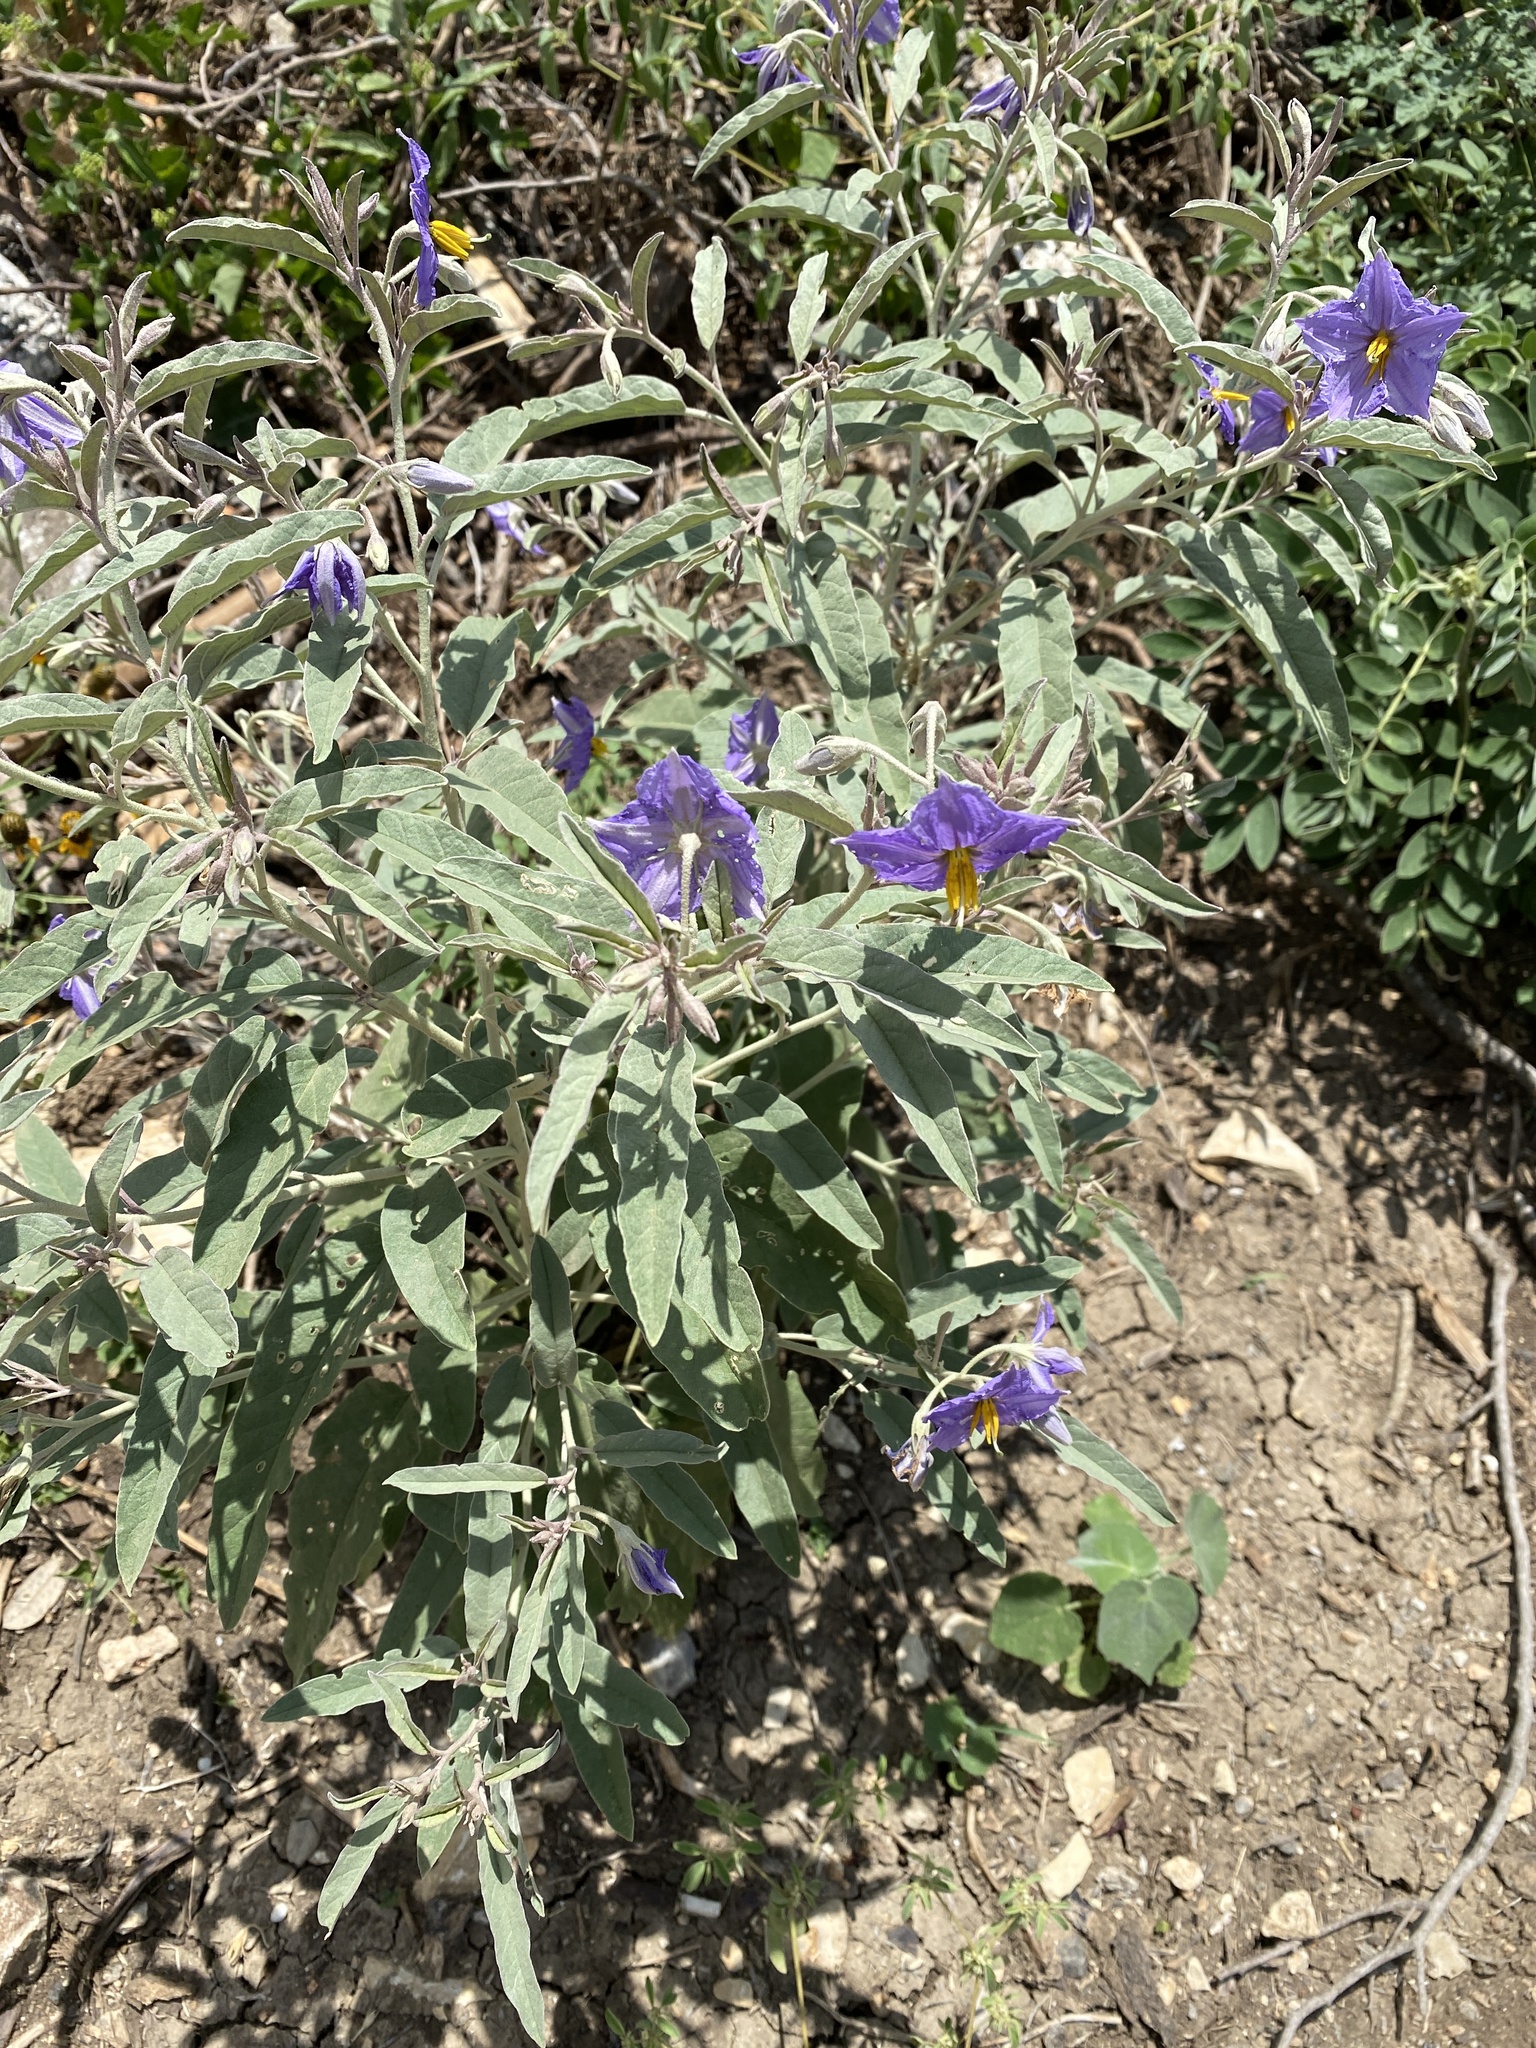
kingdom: Plantae
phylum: Tracheophyta
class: Magnoliopsida
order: Solanales
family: Solanaceae
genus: Solanum
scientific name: Solanum elaeagnifolium
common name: Silverleaf nightshade
